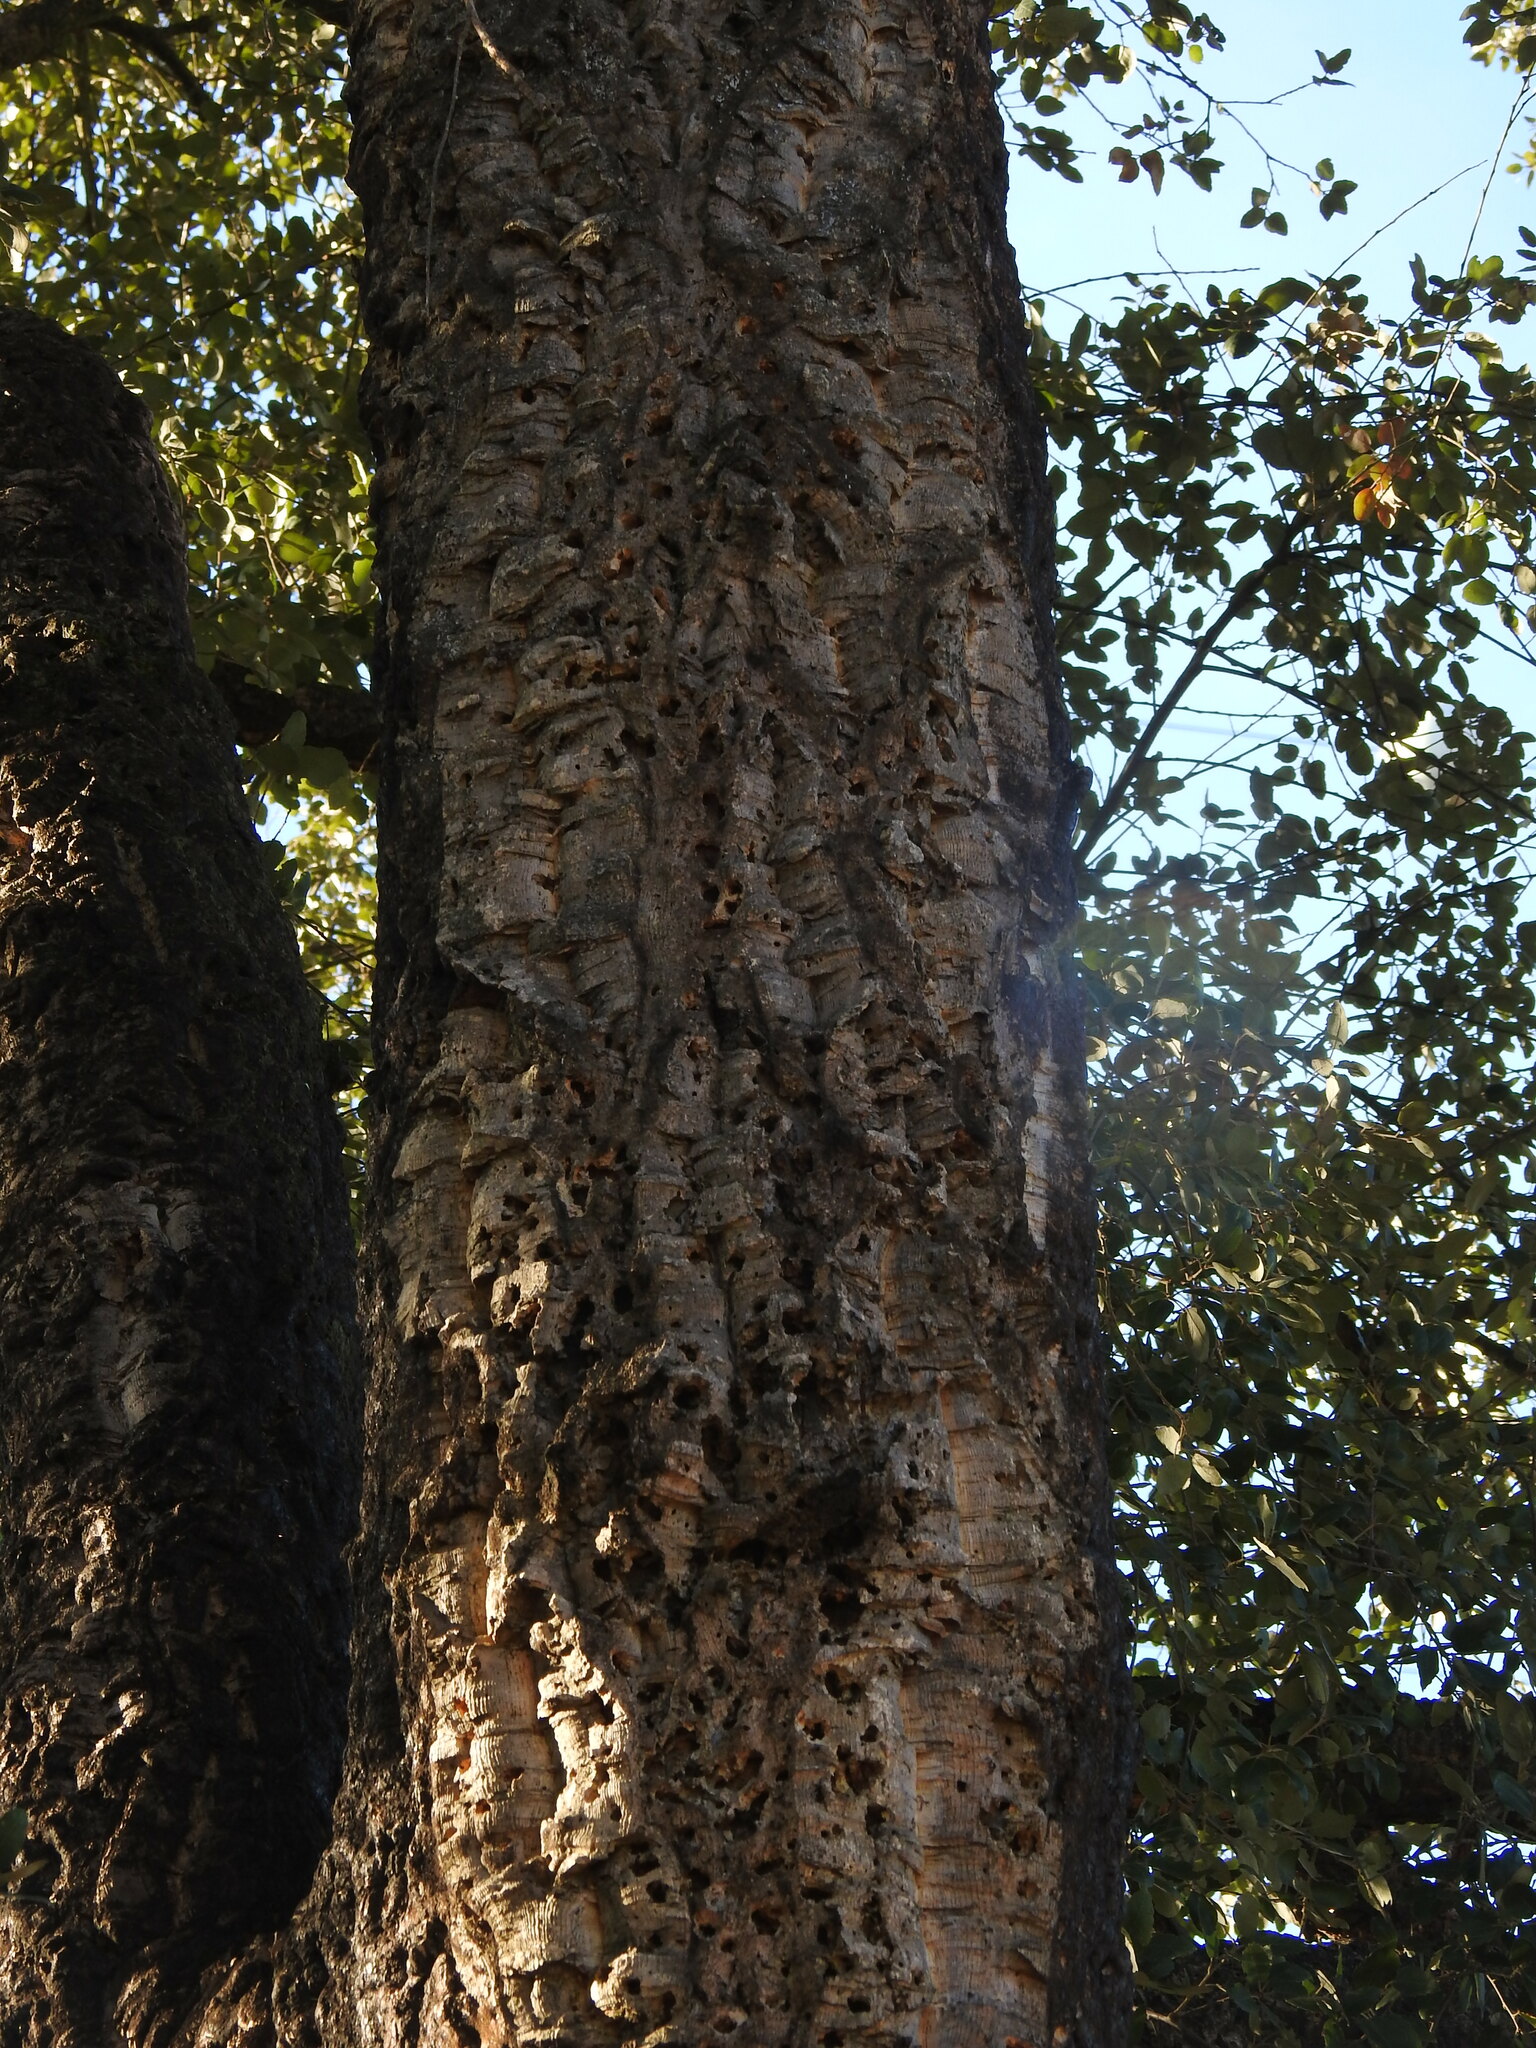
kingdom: Plantae
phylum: Tracheophyta
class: Magnoliopsida
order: Fagales
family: Fagaceae
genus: Quercus
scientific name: Quercus suber
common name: Cork oak
